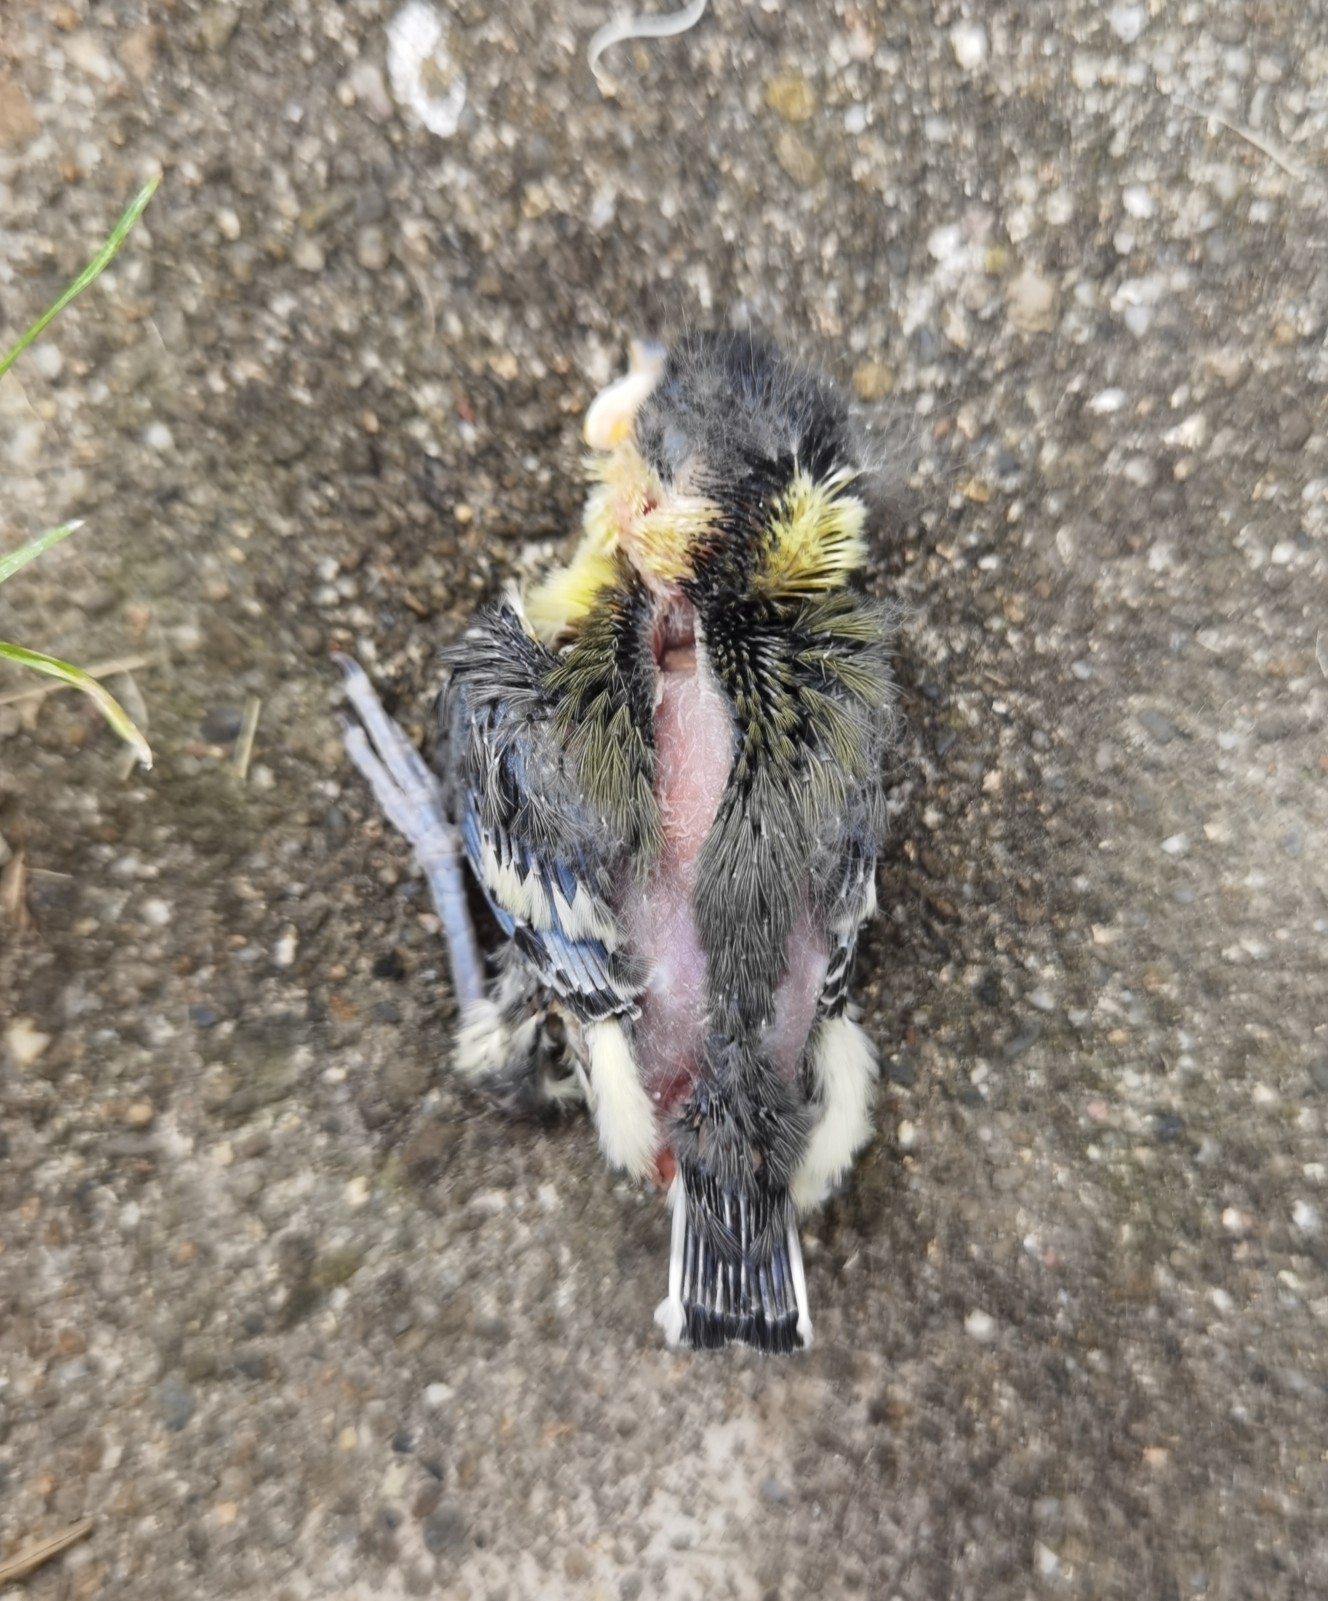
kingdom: Animalia
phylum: Chordata
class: Aves
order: Passeriformes
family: Paridae
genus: Parus
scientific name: Parus major
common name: Great tit
